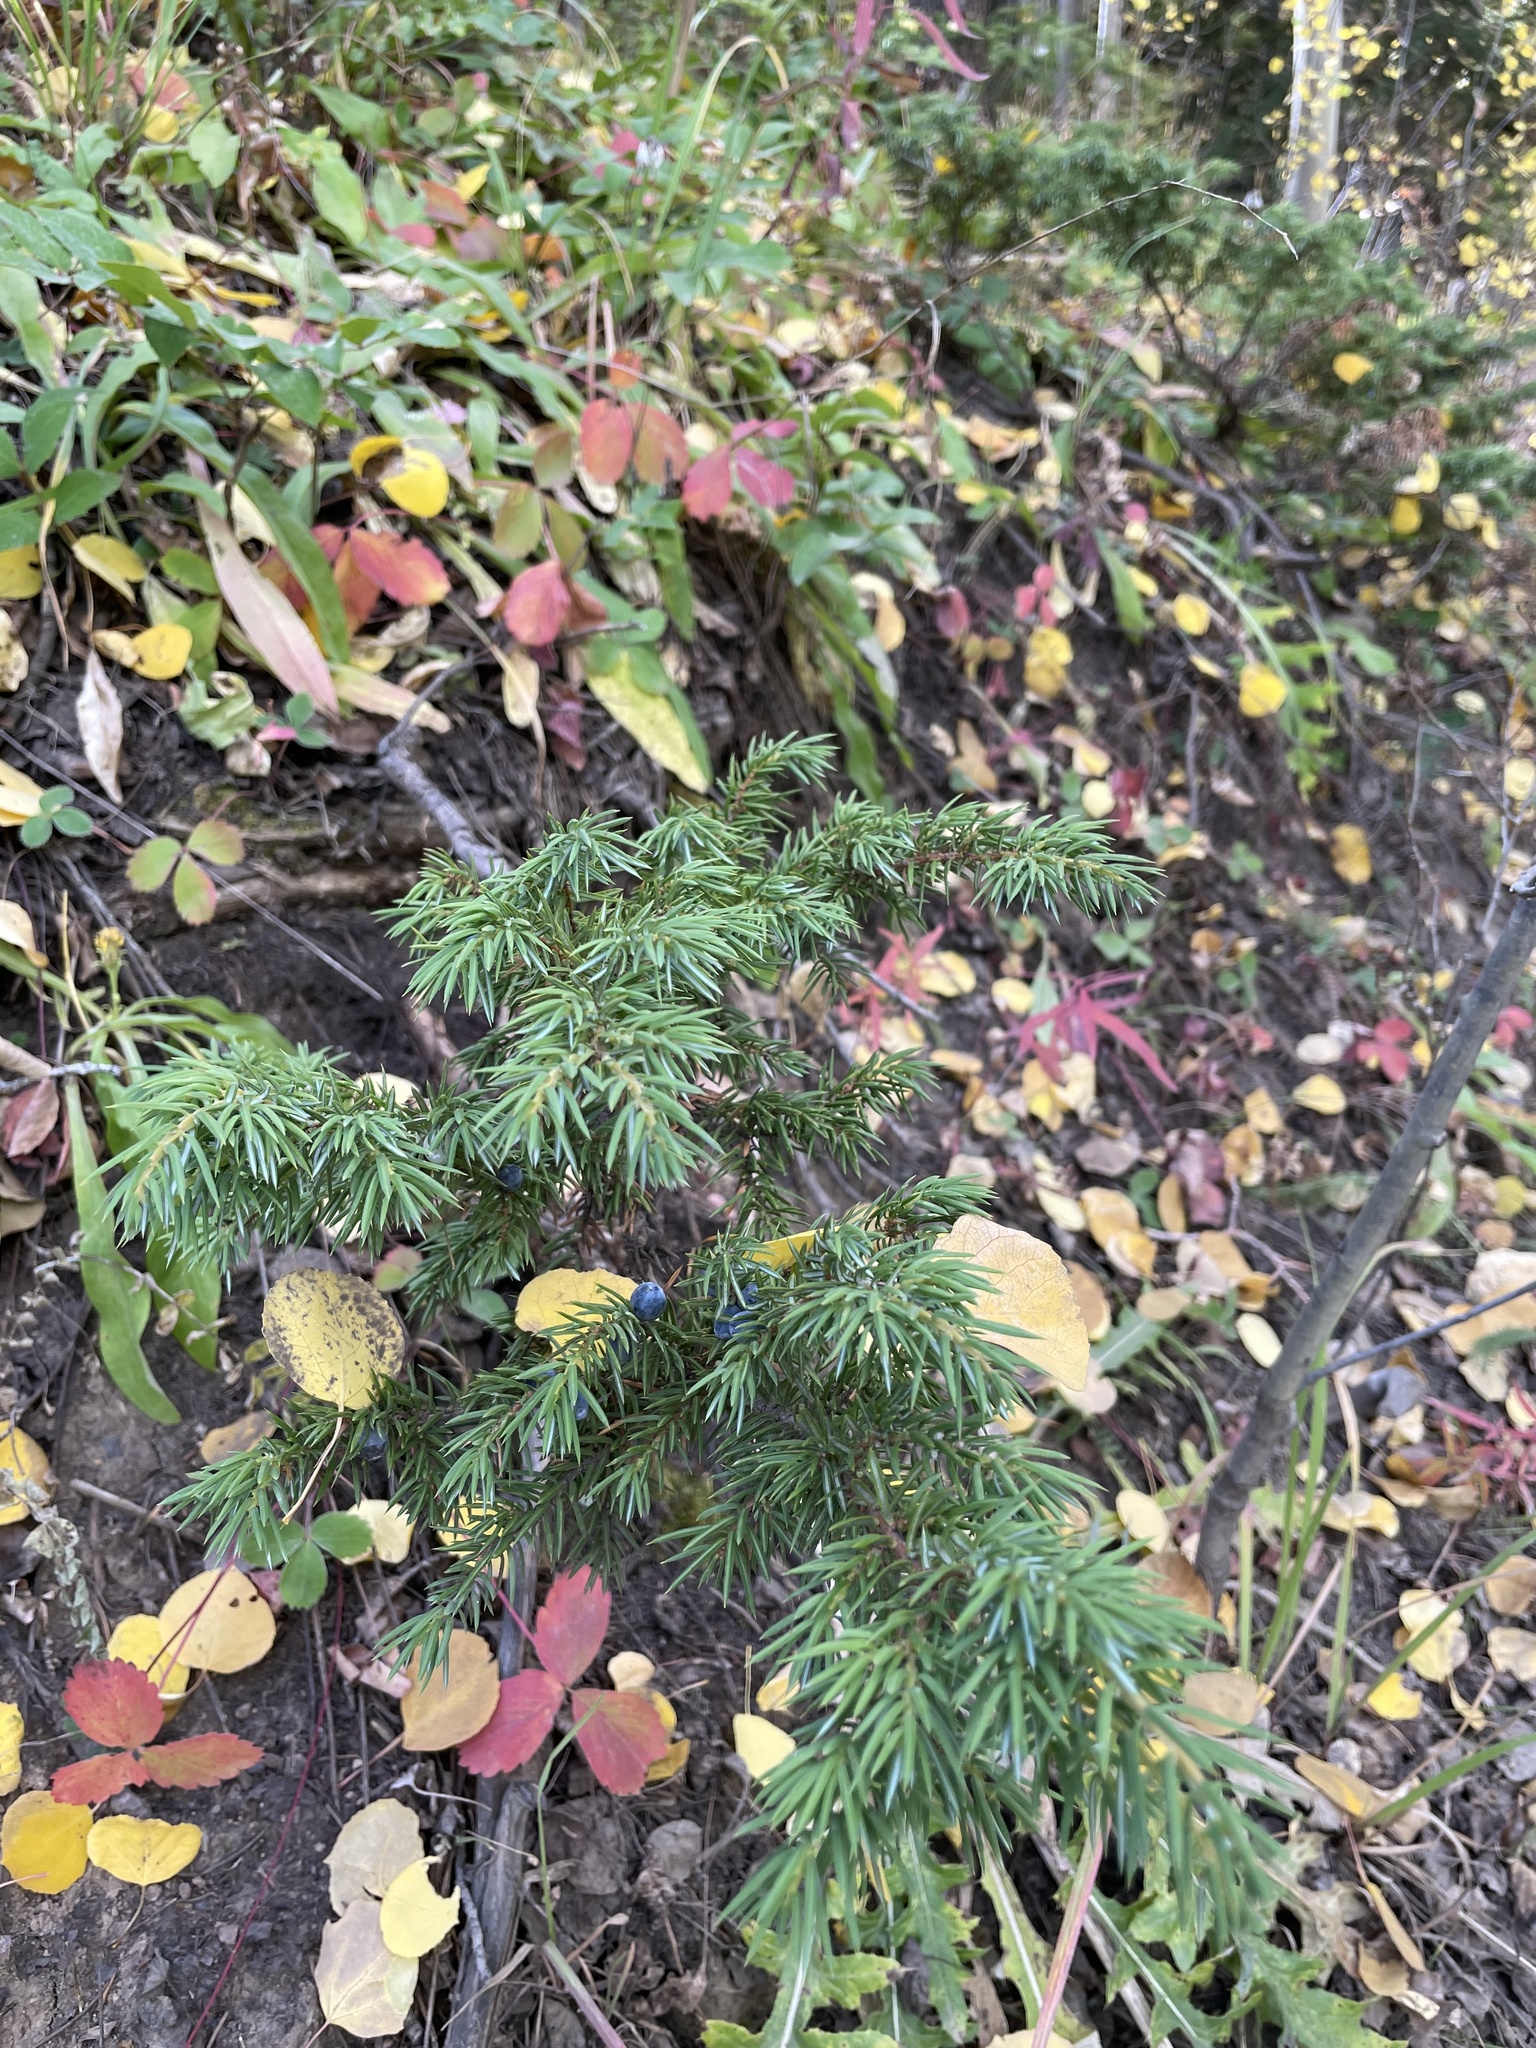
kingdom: Plantae
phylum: Tracheophyta
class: Pinopsida
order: Pinales
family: Cupressaceae
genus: Juniperus
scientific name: Juniperus communis
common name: Common juniper
